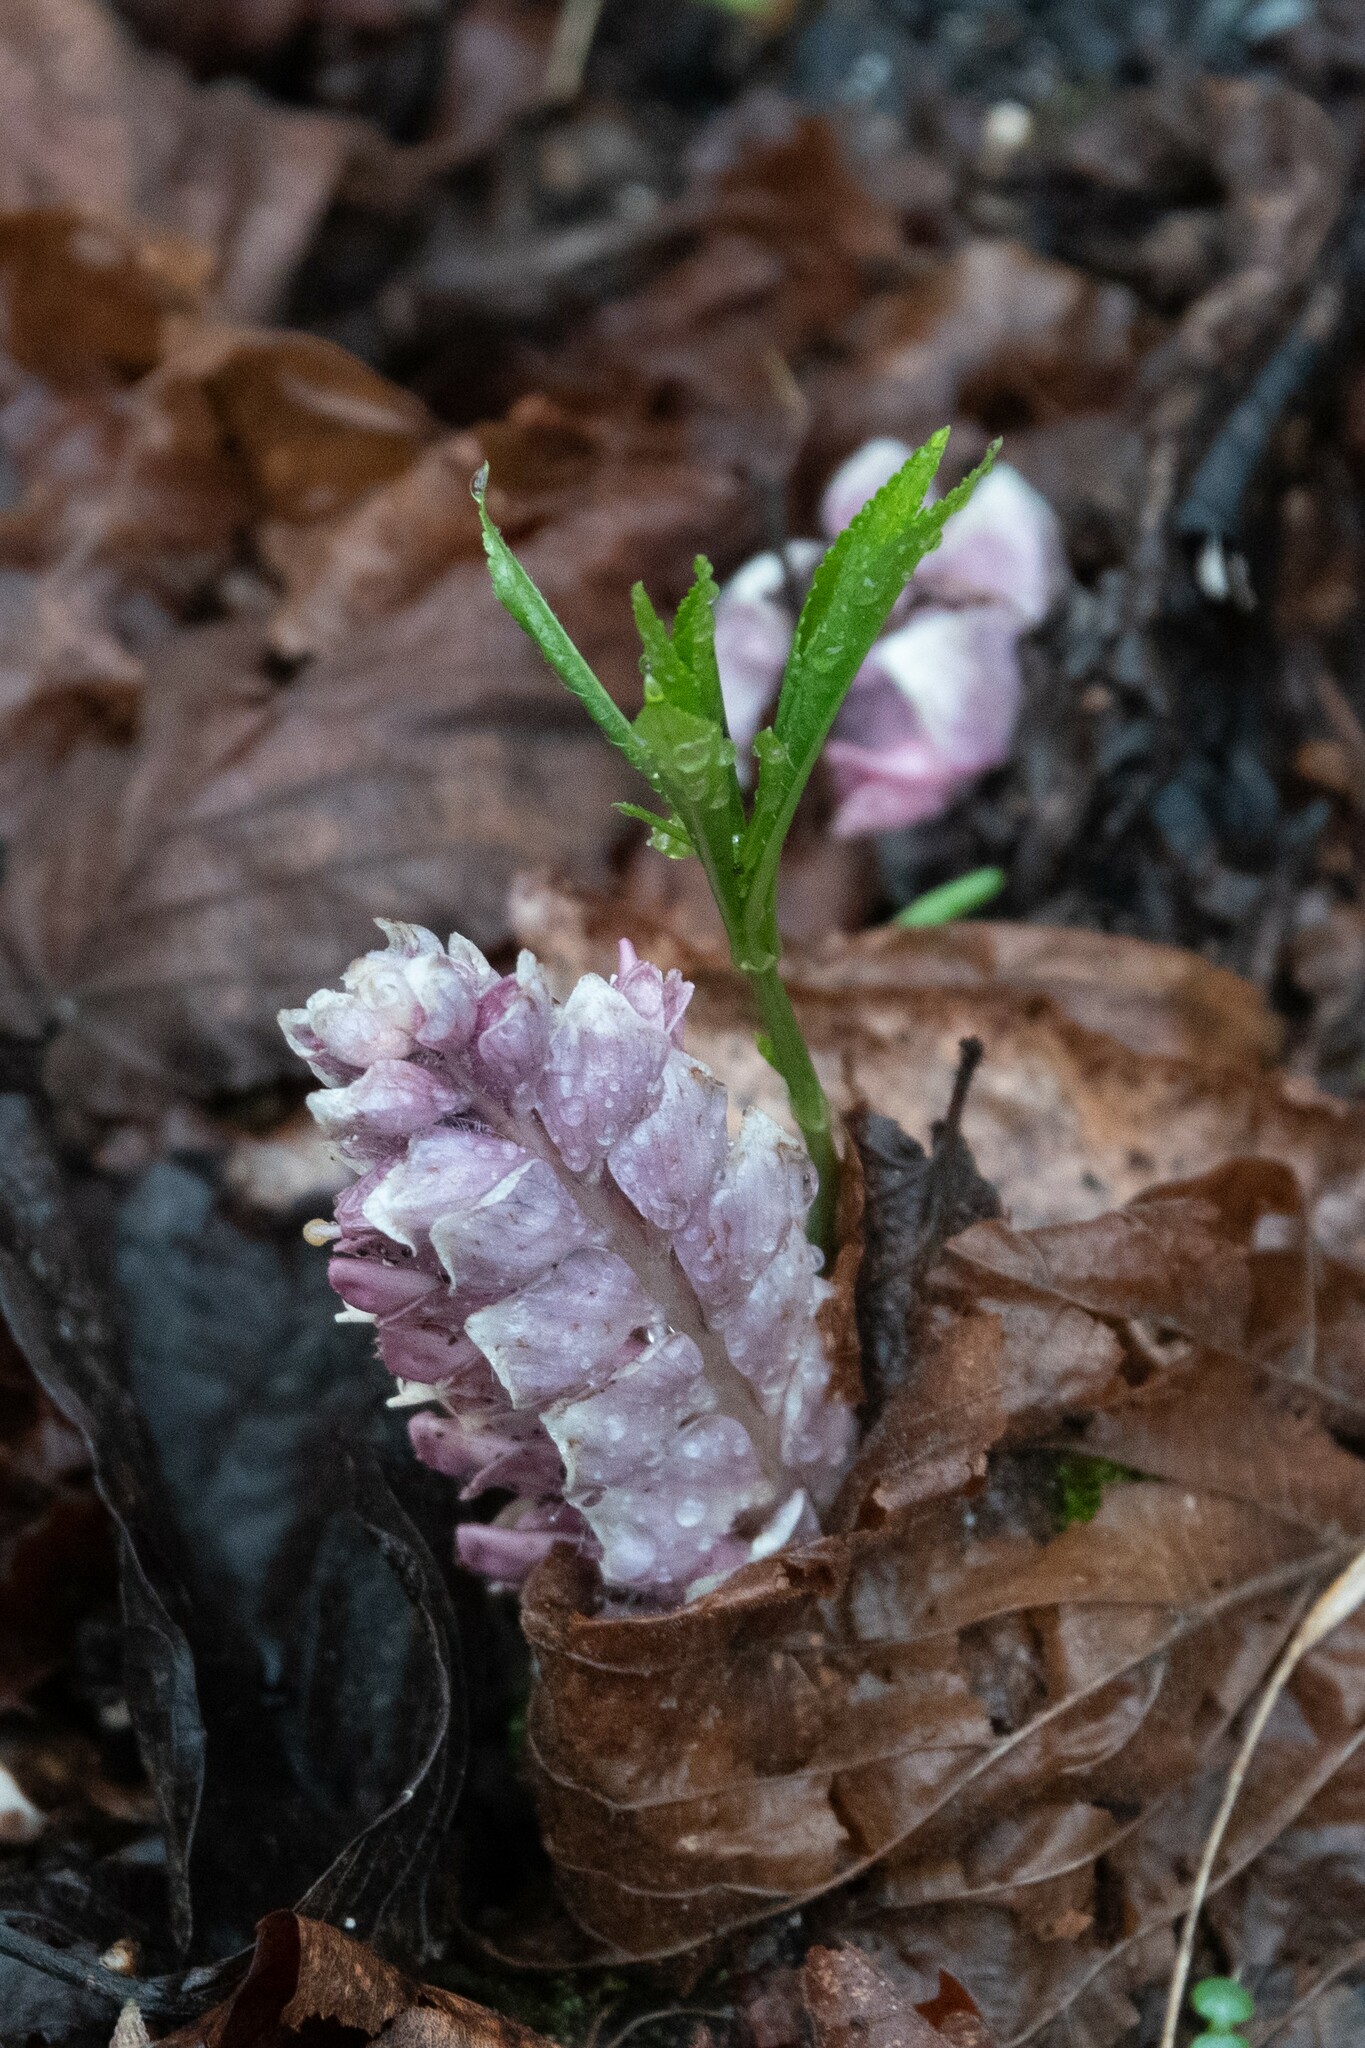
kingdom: Plantae
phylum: Tracheophyta
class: Magnoliopsida
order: Lamiales
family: Orobanchaceae
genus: Lathraea
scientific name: Lathraea squamaria
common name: Toothwort
